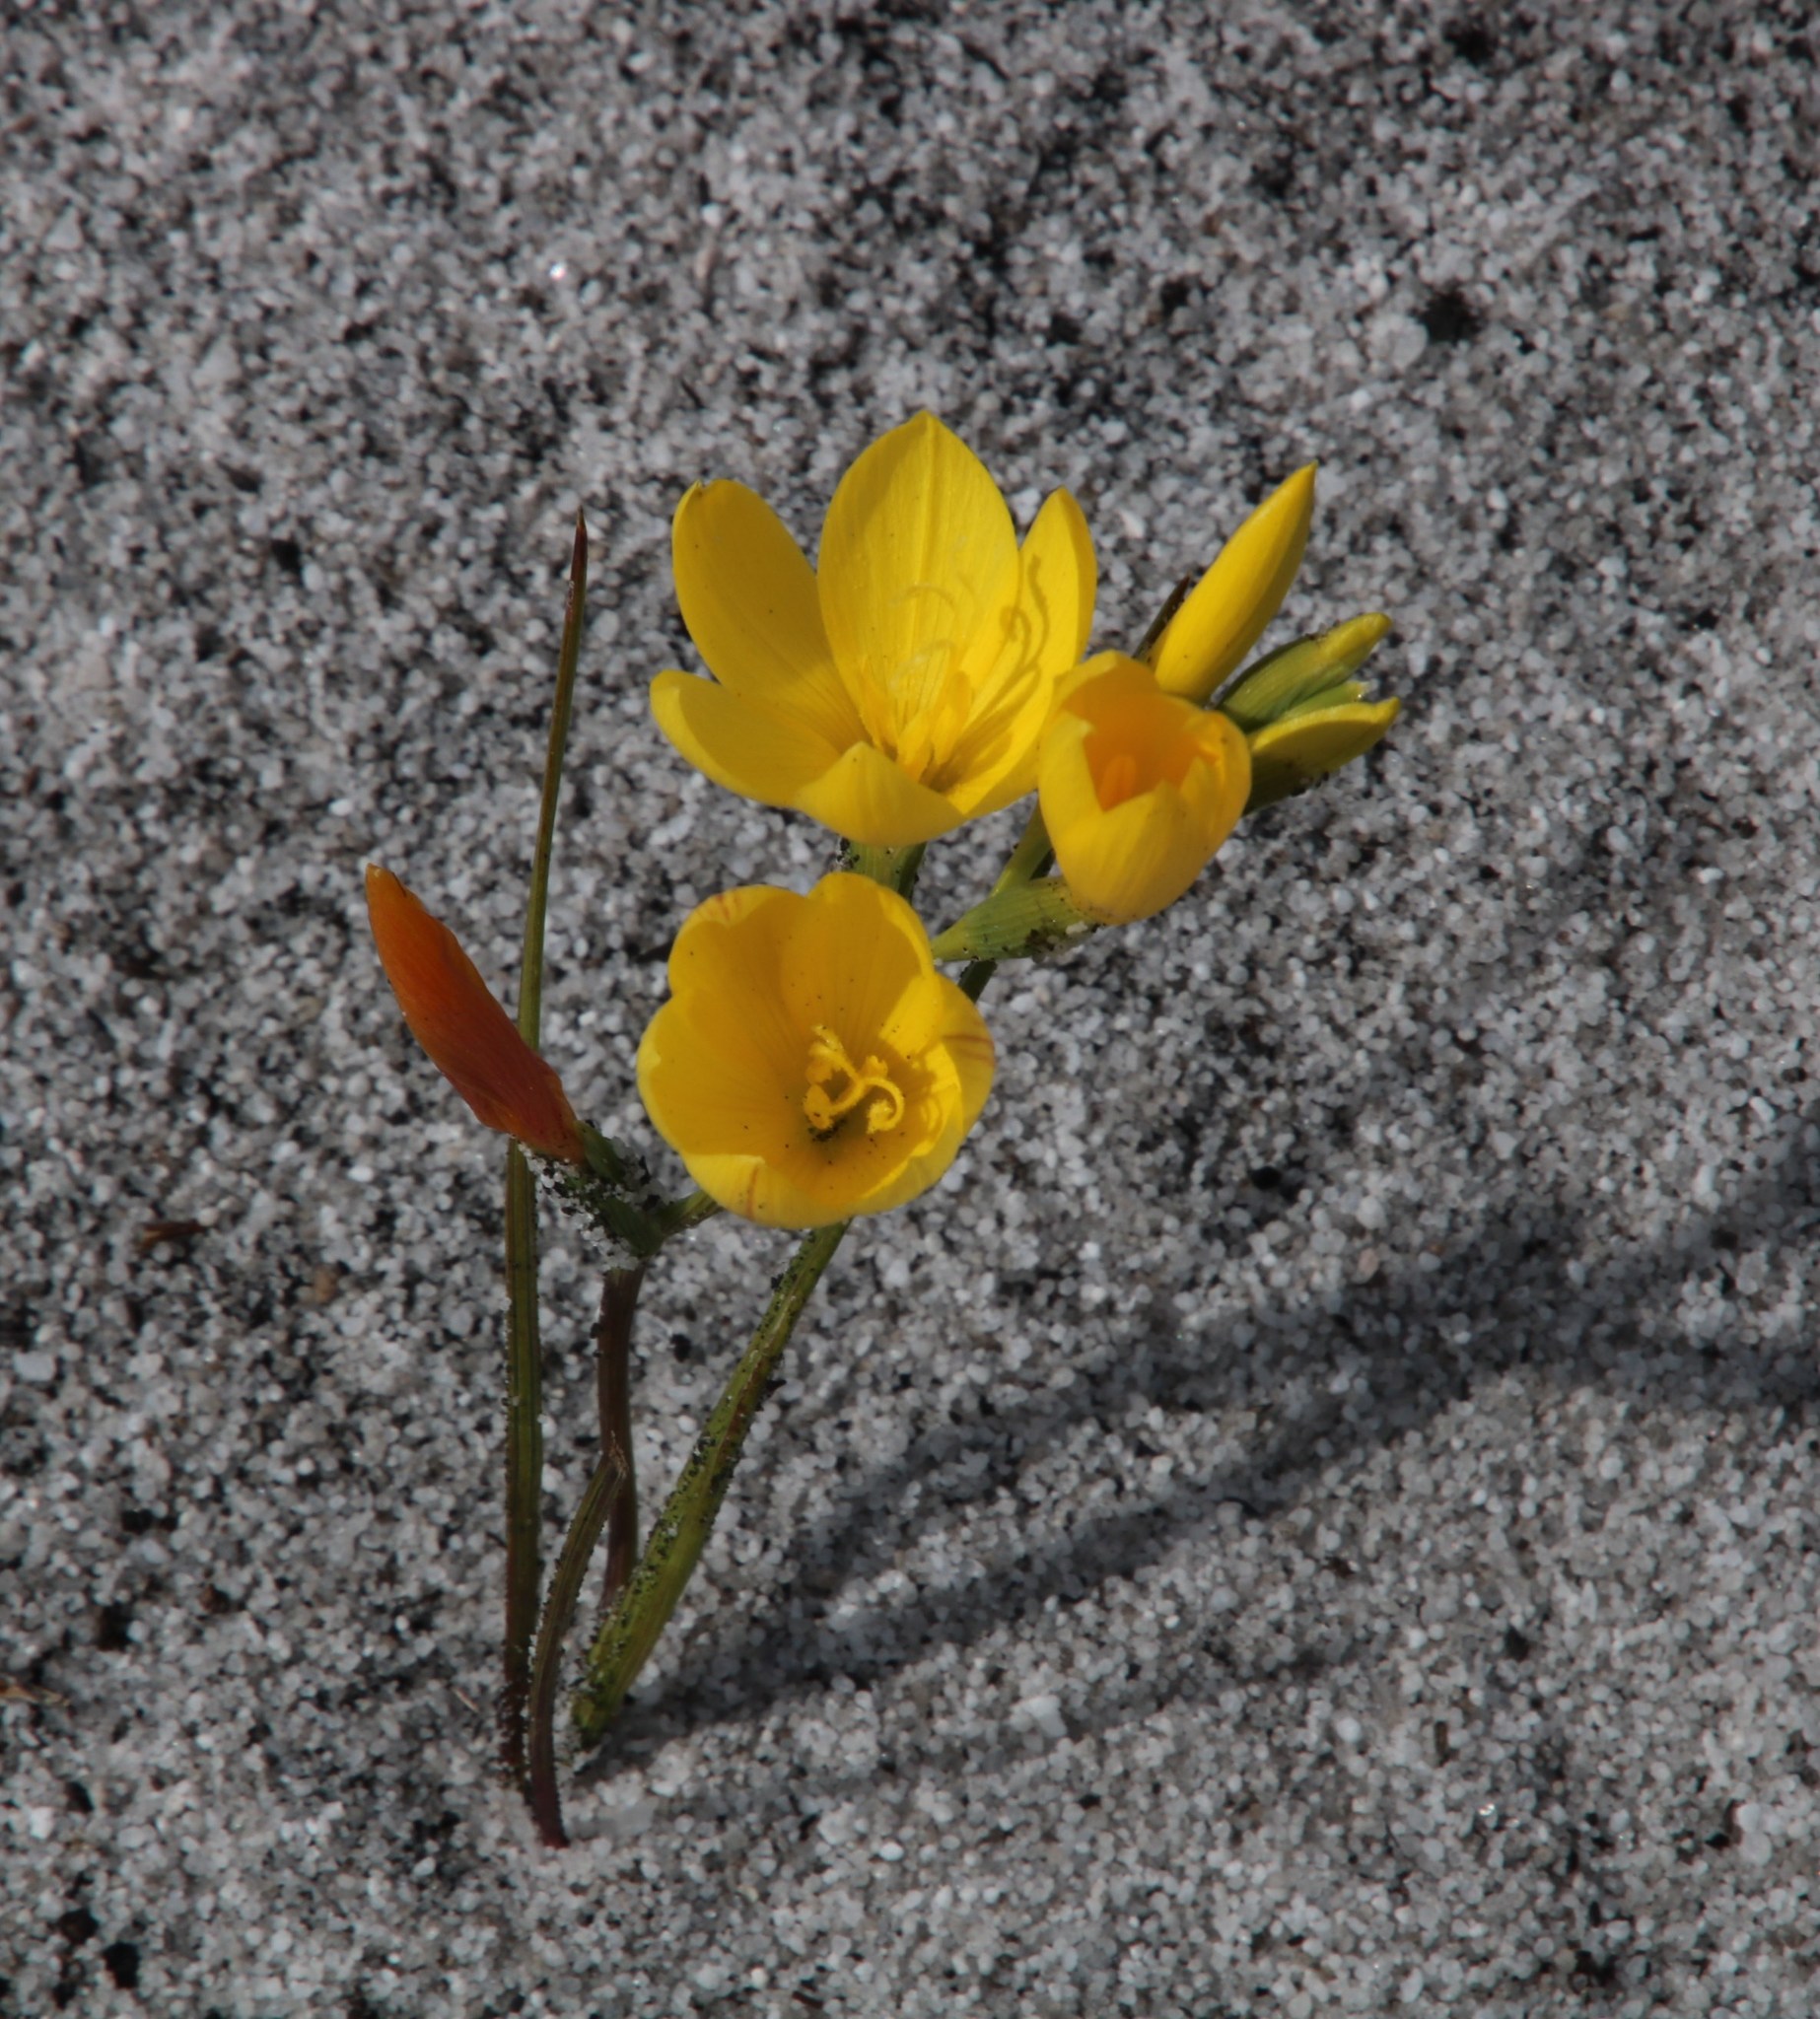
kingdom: Plantae
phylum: Tracheophyta
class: Liliopsida
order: Asparagales
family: Iridaceae
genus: Geissorhiza
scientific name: Geissorhiza humilis
